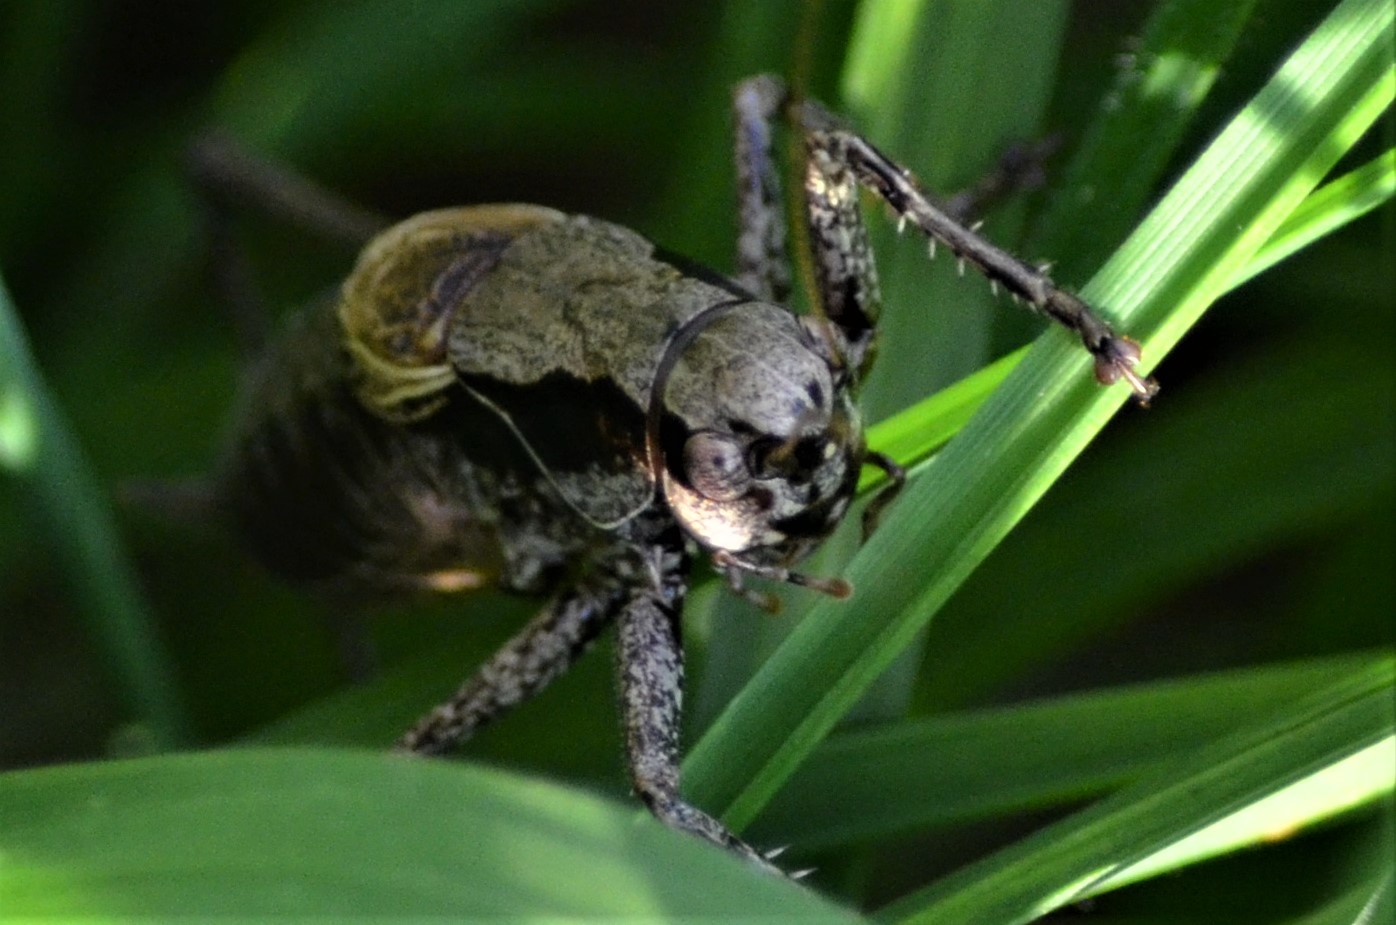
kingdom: Animalia
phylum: Arthropoda
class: Insecta
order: Orthoptera
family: Tettigoniidae
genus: Pholidoptera
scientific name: Pholidoptera griseoaptera
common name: Dark bush-cricket
